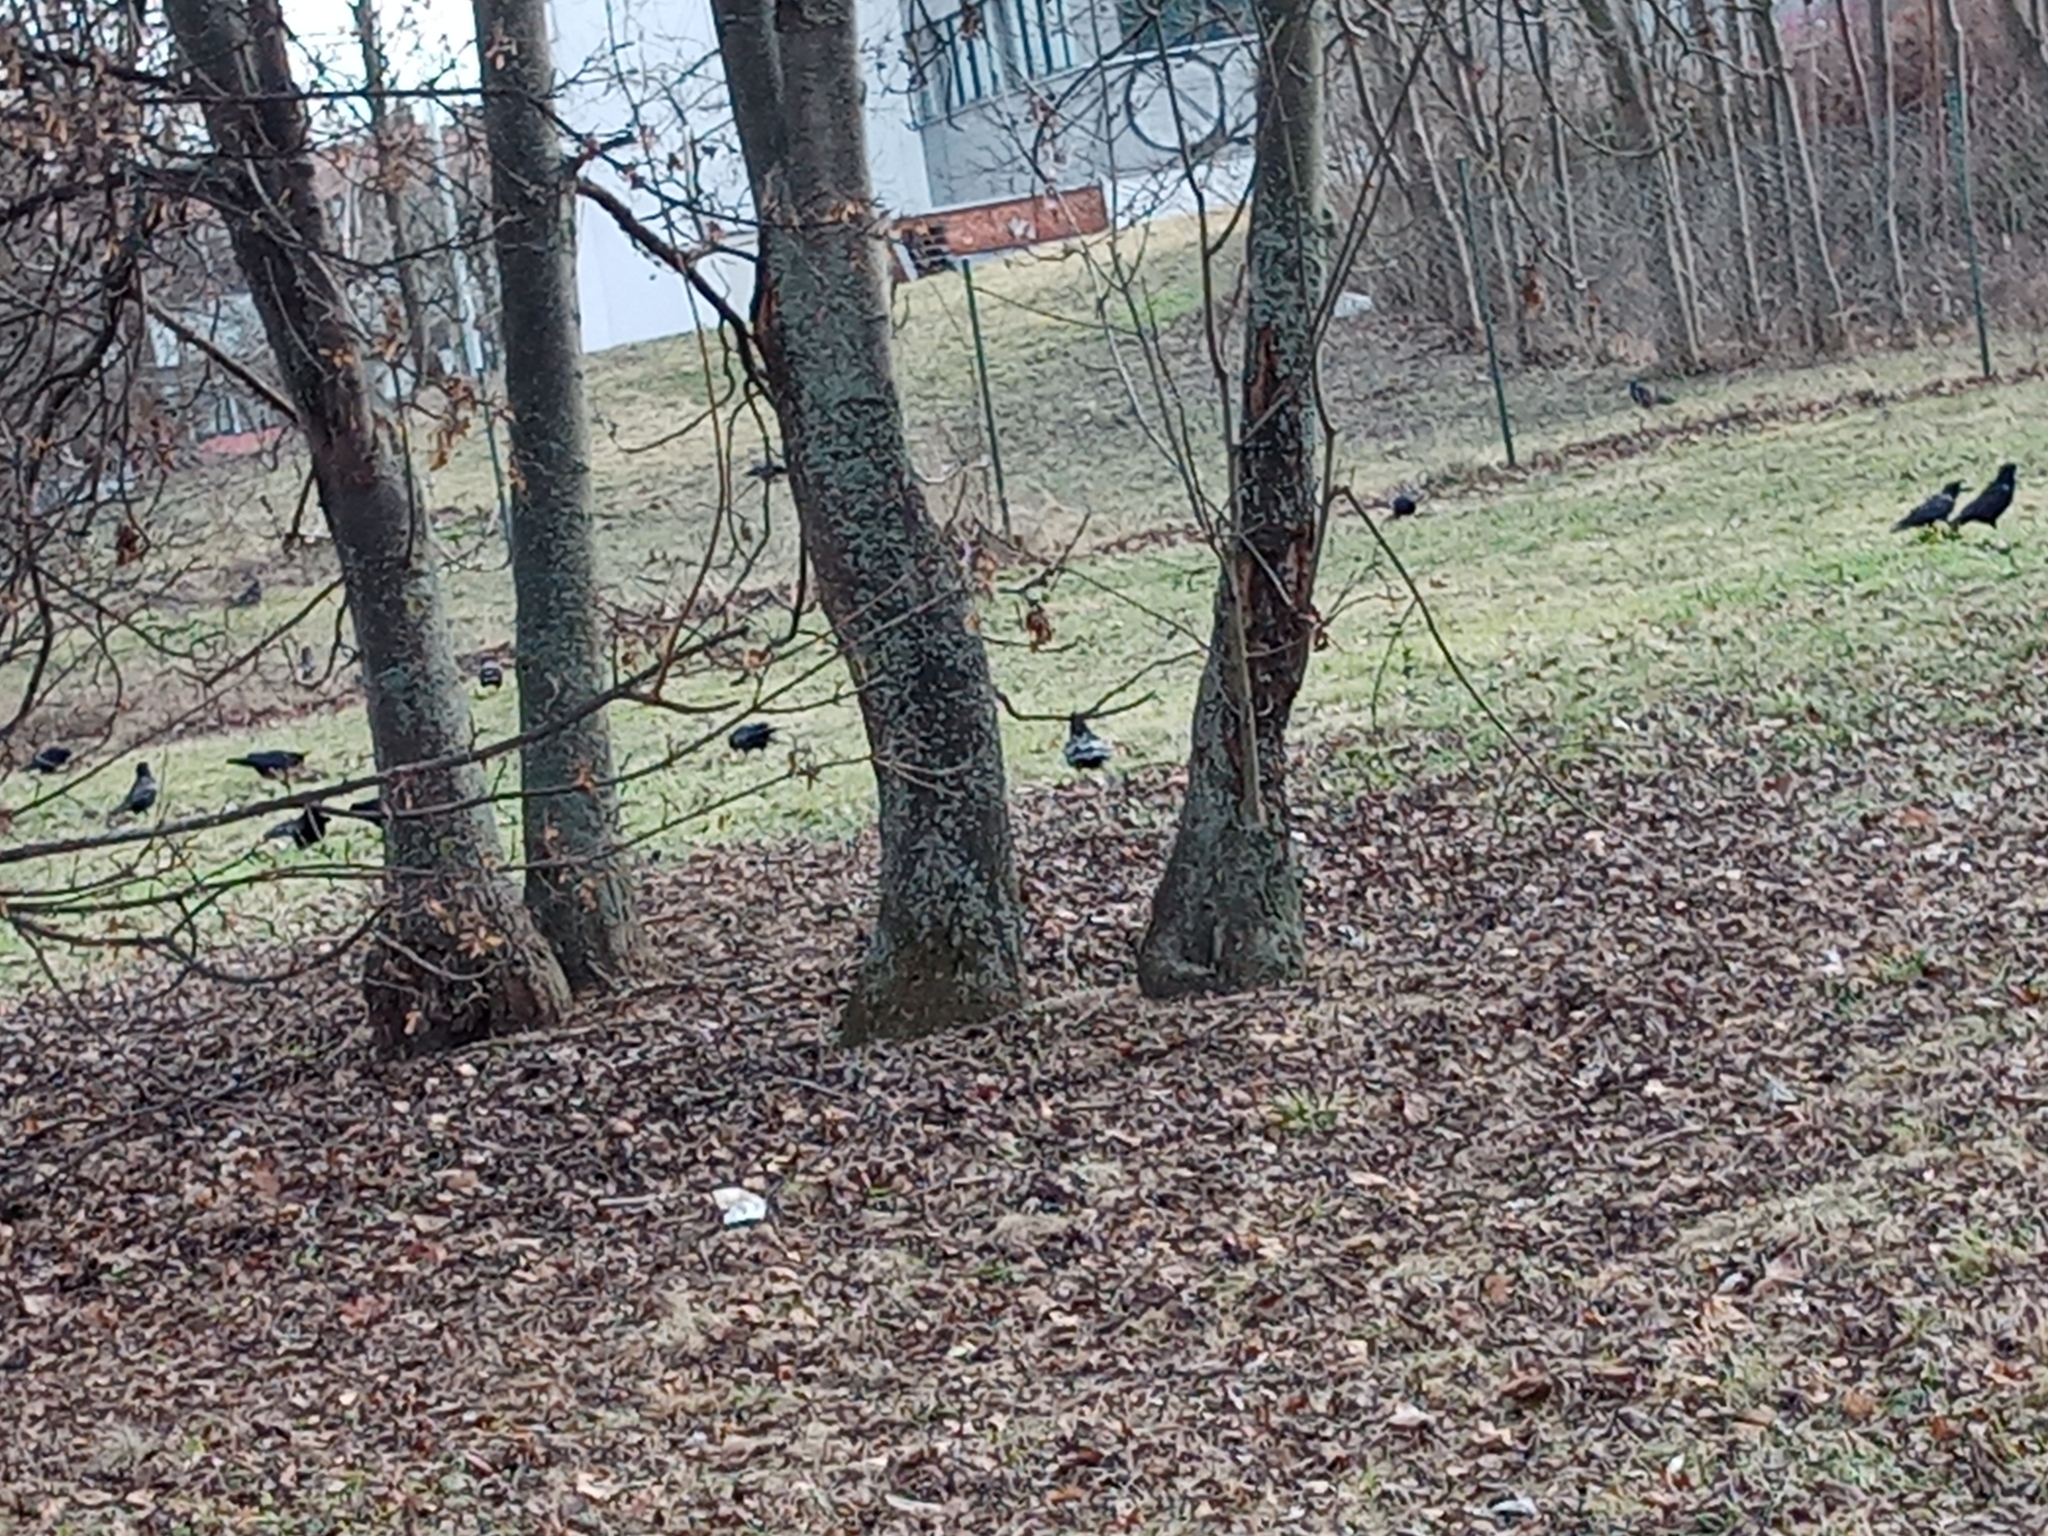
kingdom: Animalia
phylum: Chordata
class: Aves
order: Passeriformes
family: Corvidae
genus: Corvus
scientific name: Corvus frugilegus
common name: Rook
